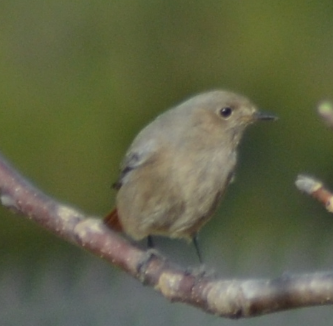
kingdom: Animalia
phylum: Chordata
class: Aves
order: Passeriformes
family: Muscicapidae
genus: Phoenicurus
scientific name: Phoenicurus ochruros
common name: Black redstart
